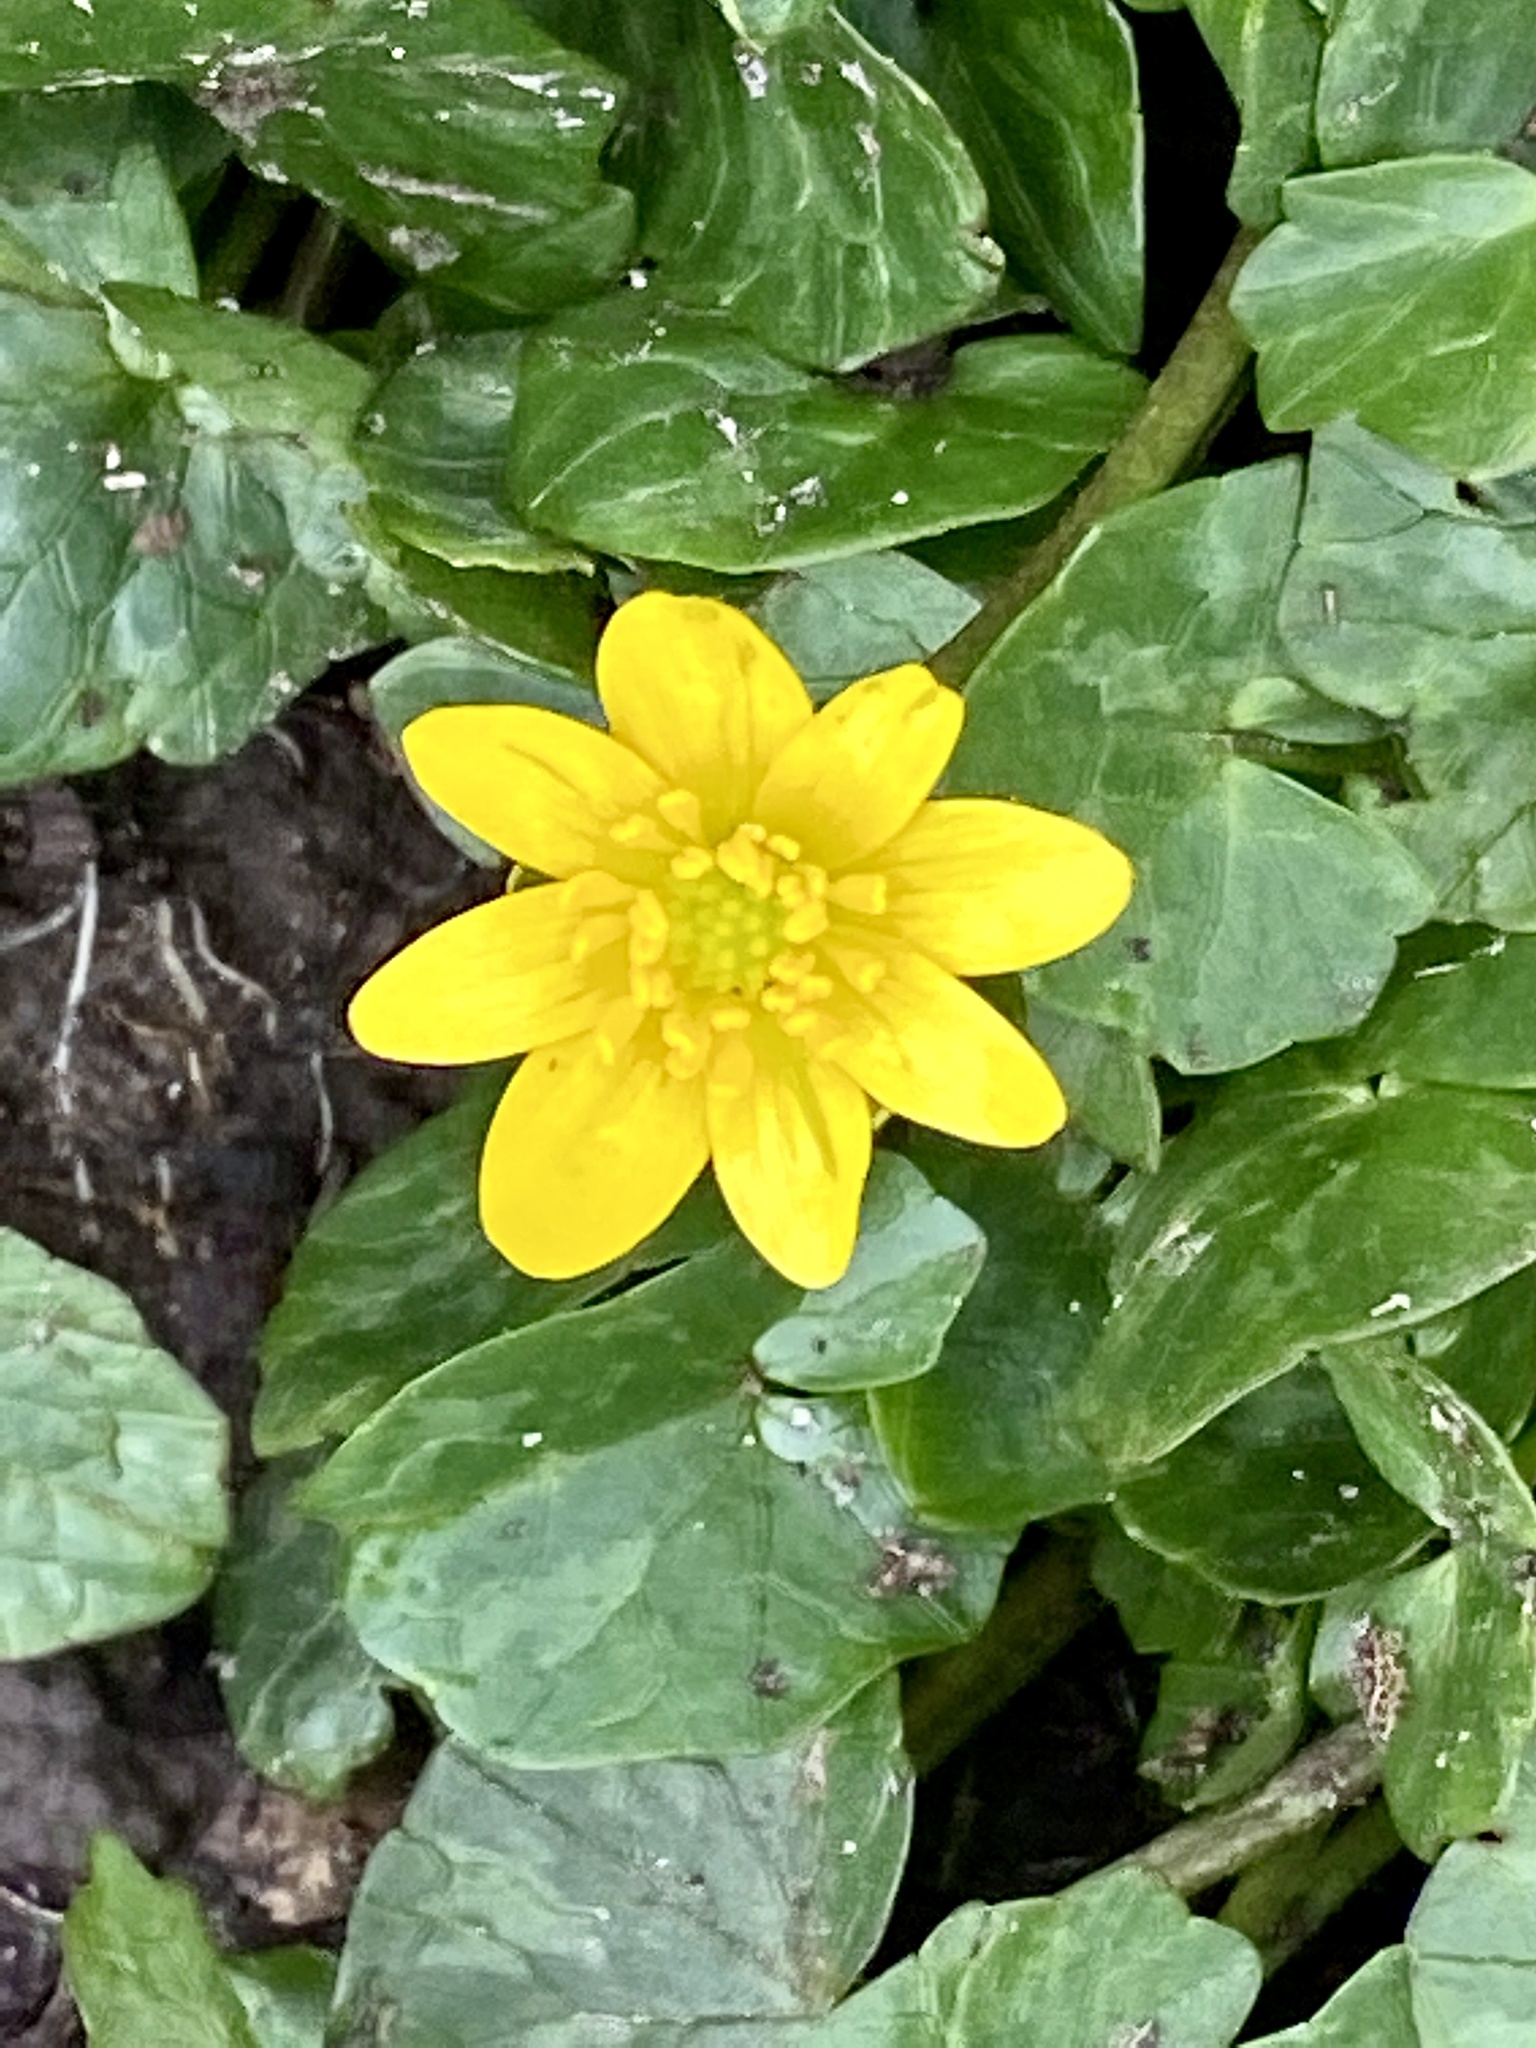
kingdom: Plantae
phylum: Tracheophyta
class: Magnoliopsida
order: Ranunculales
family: Ranunculaceae
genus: Ficaria
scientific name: Ficaria verna
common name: Lesser celandine
